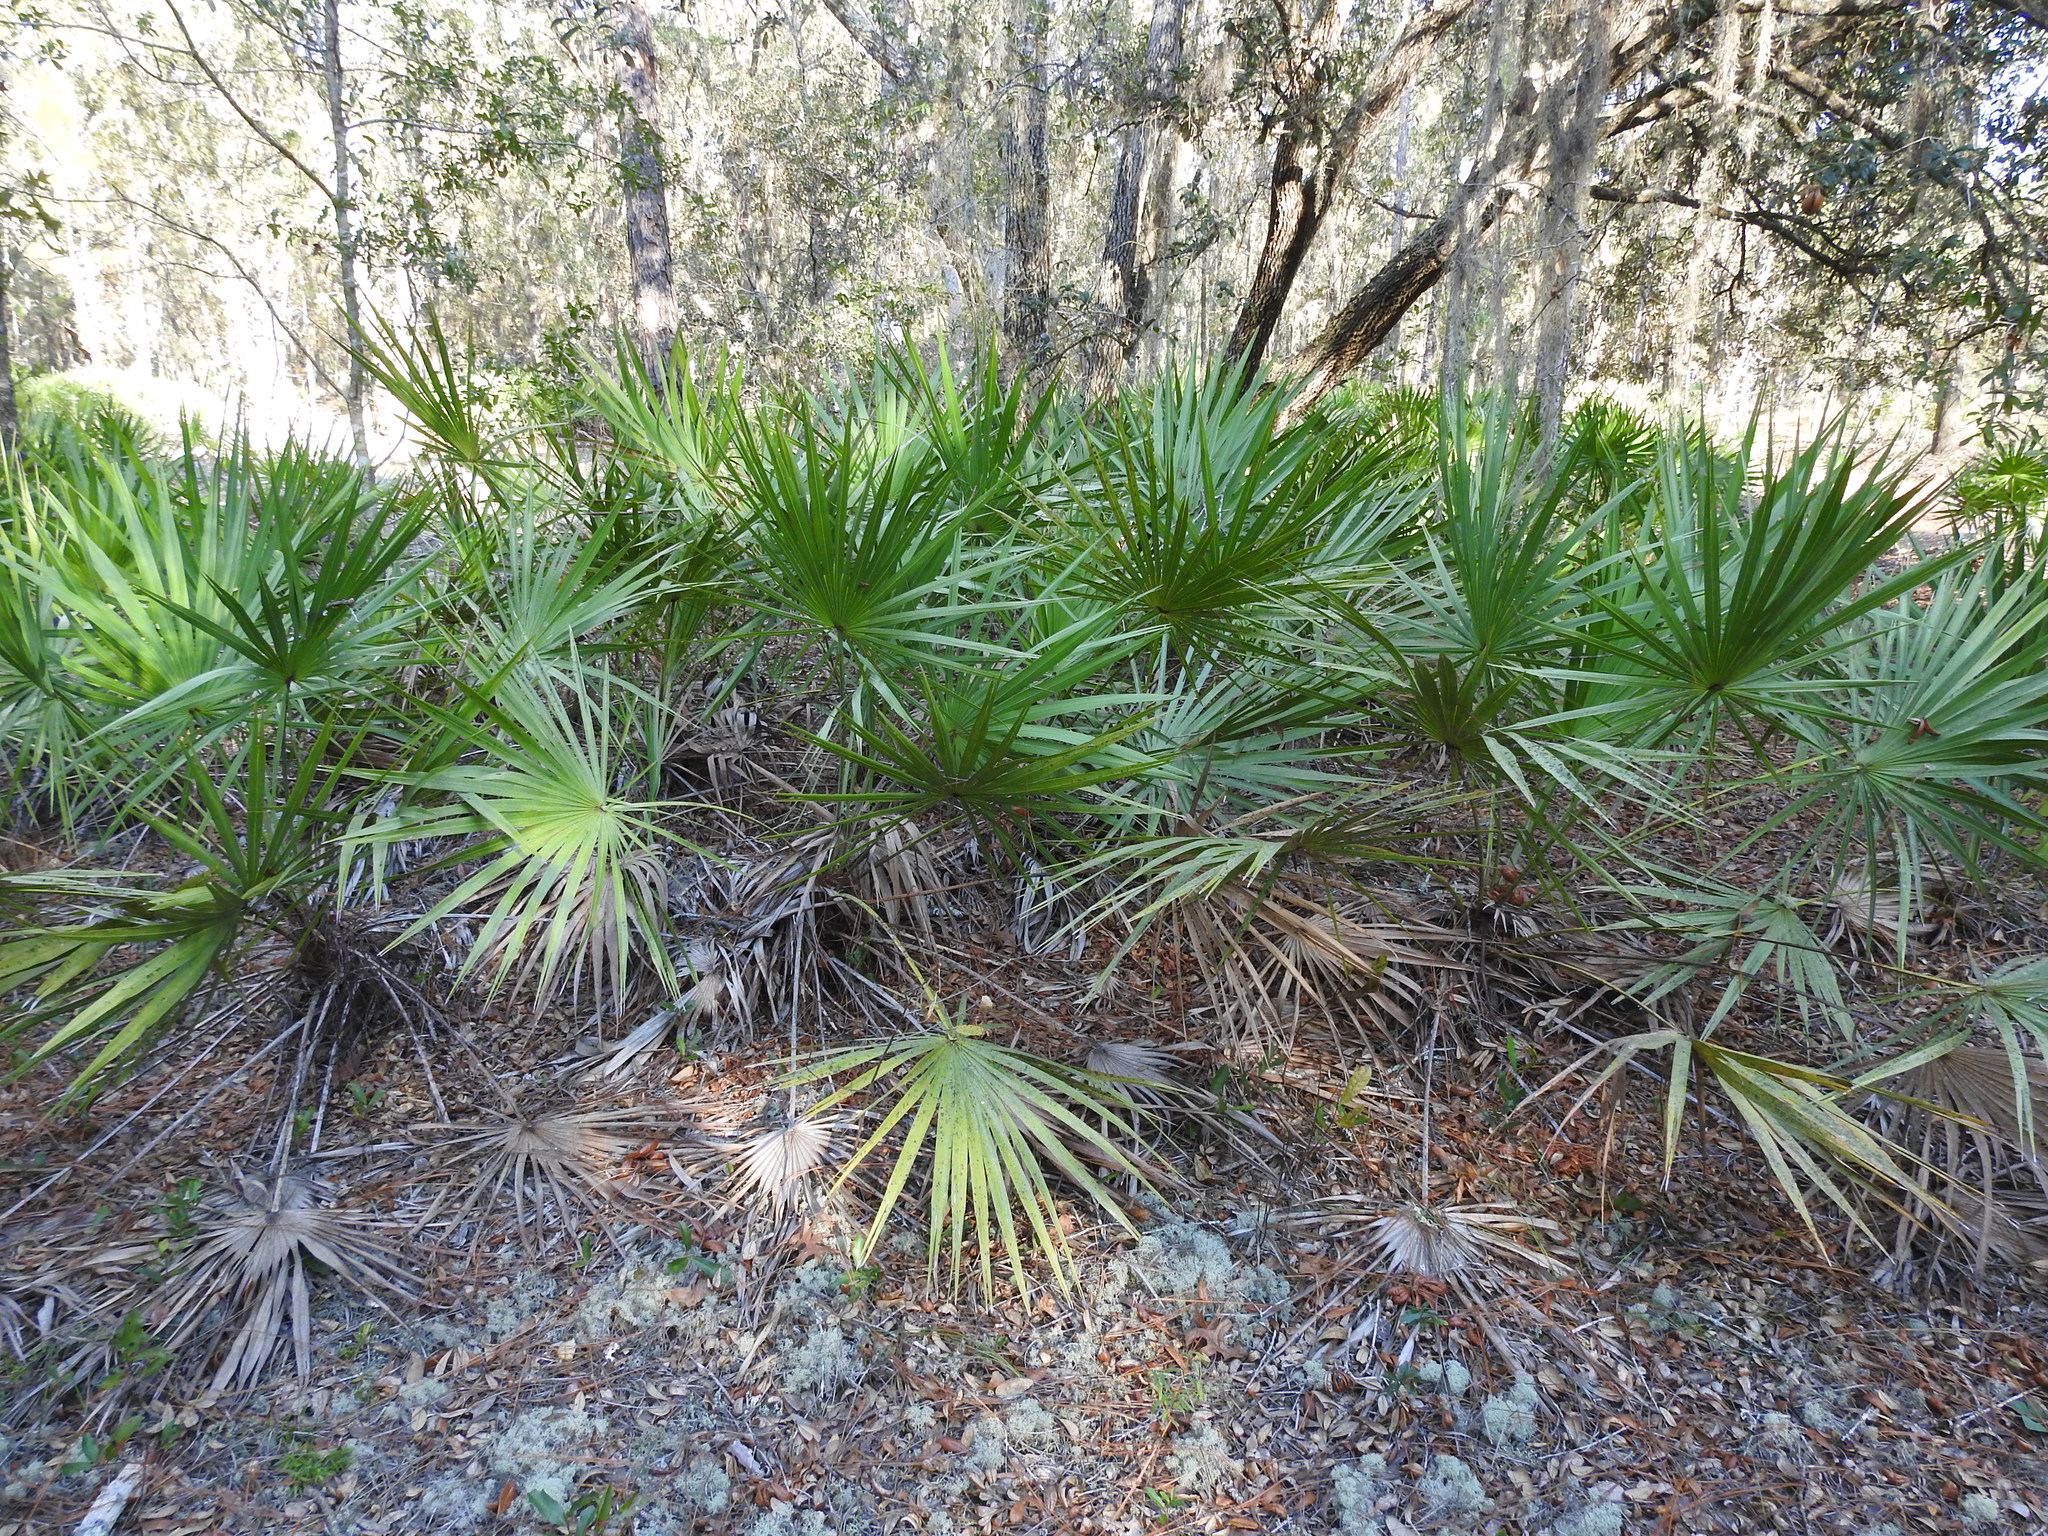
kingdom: Plantae
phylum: Tracheophyta
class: Liliopsida
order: Arecales
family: Arecaceae
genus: Serenoa
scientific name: Serenoa repens
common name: Saw-palmetto
